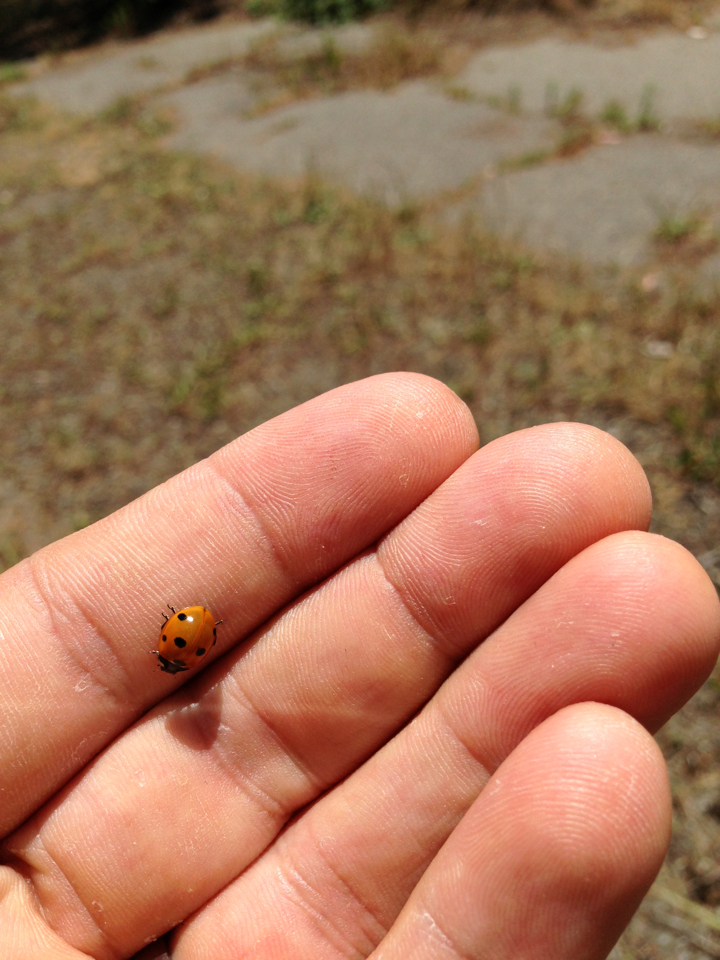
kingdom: Animalia
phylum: Arthropoda
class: Insecta
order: Coleoptera
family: Coccinellidae
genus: Coccinella
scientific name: Coccinella septempunctata
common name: Sevenspotted lady beetle
